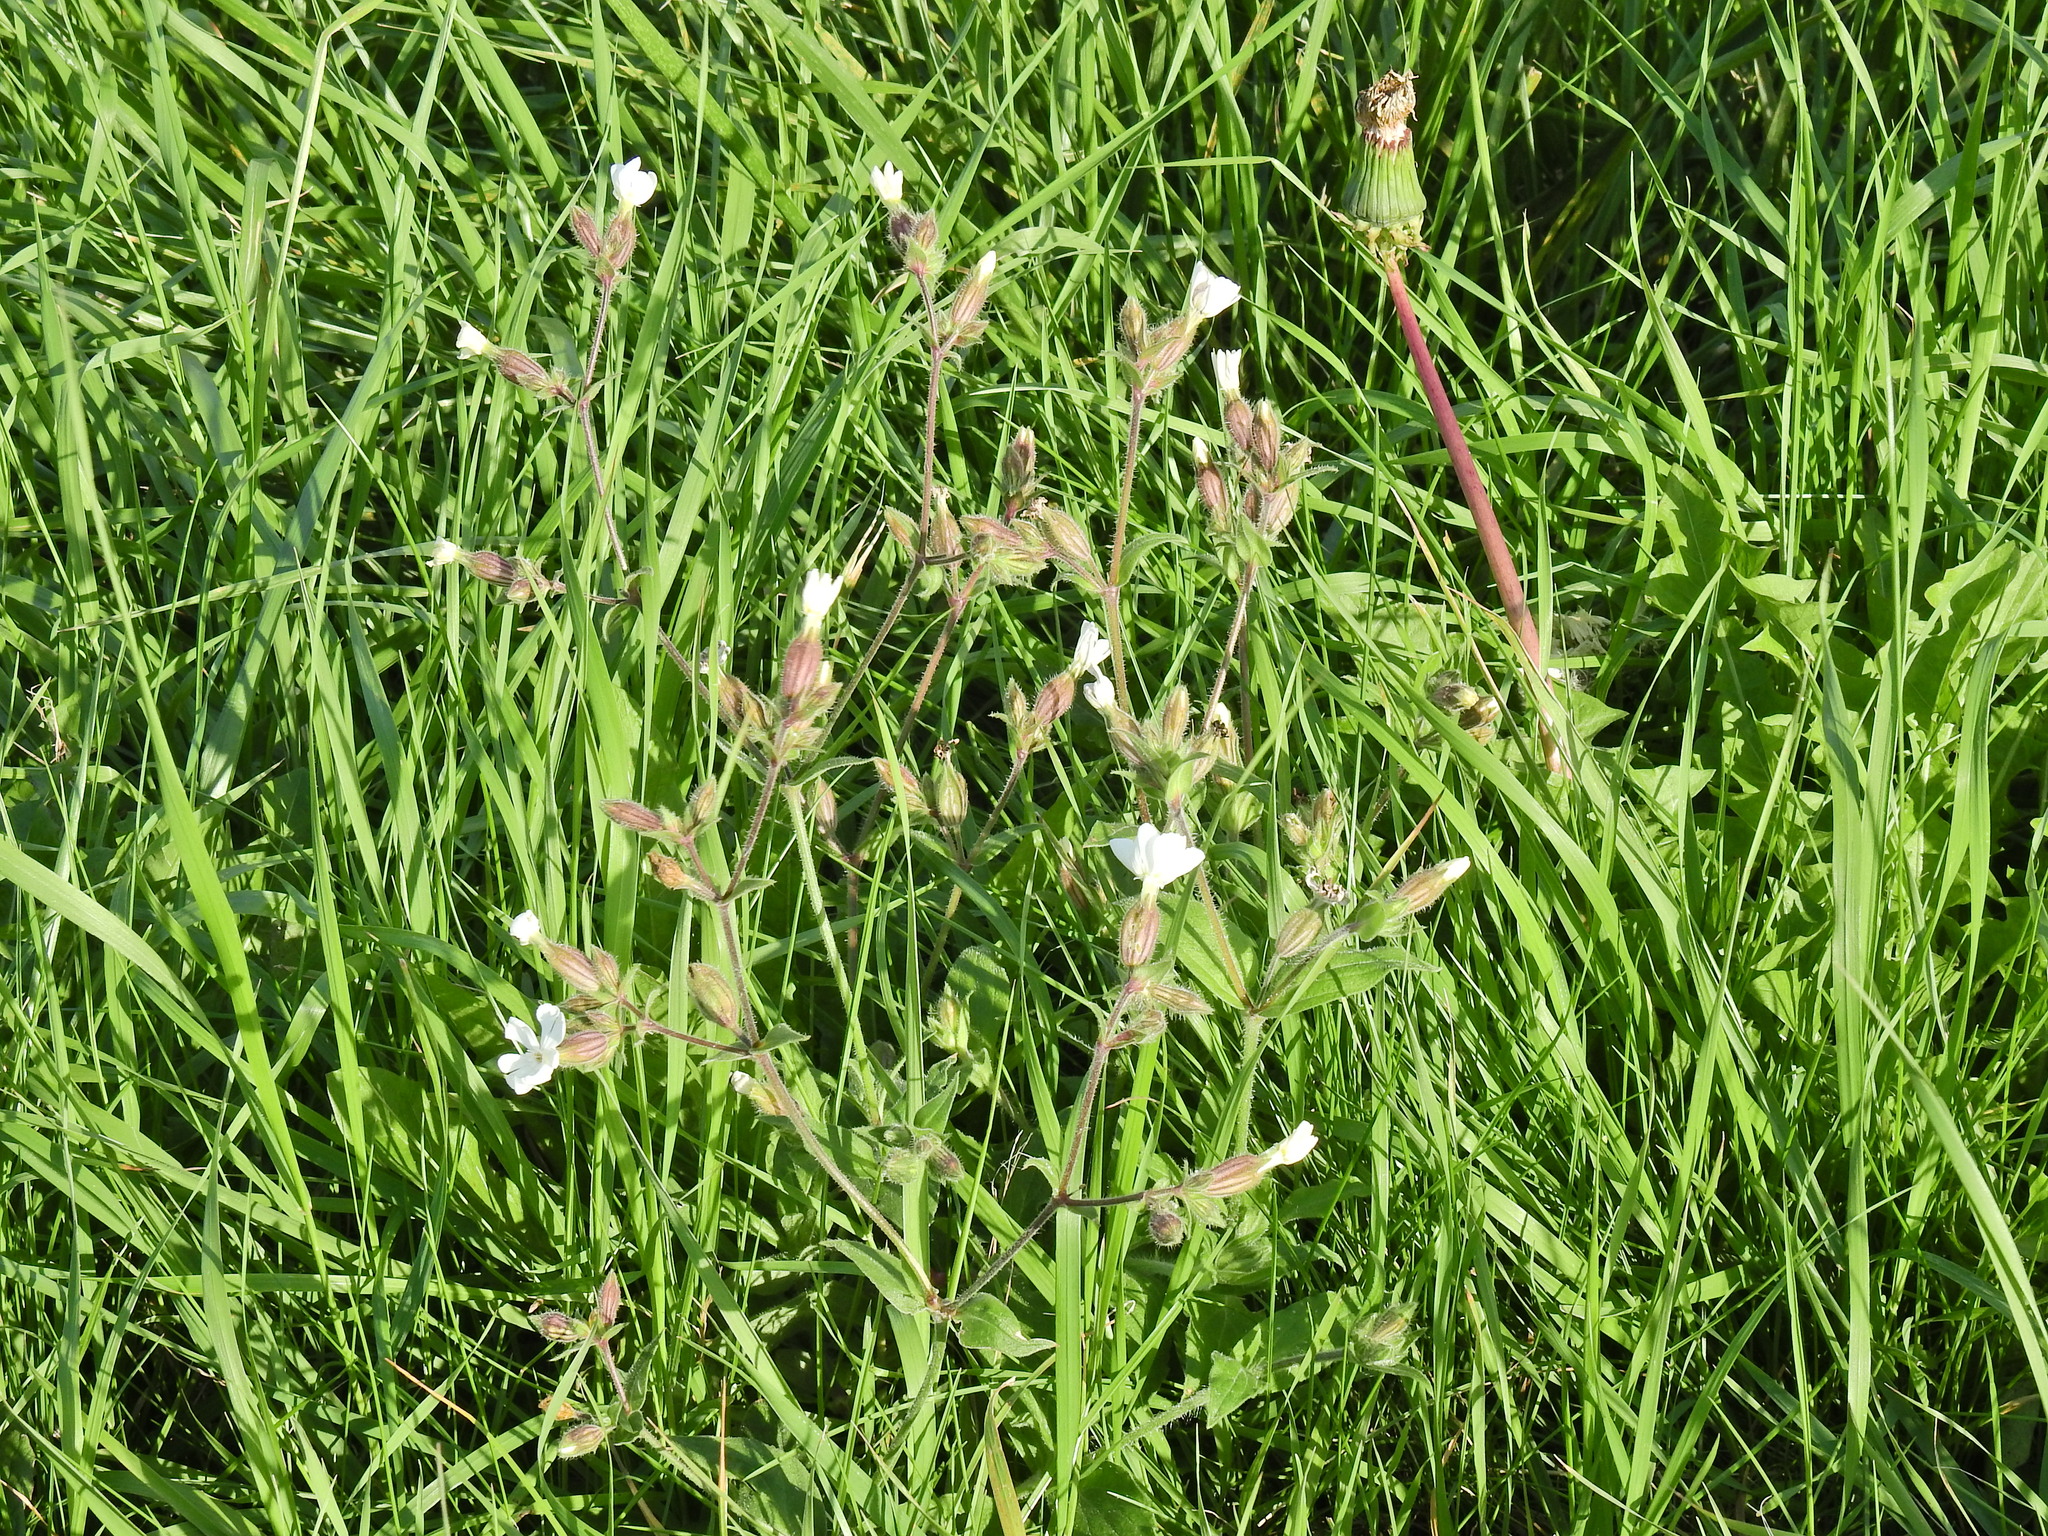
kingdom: Plantae
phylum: Tracheophyta
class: Magnoliopsida
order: Caryophyllales
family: Caryophyllaceae
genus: Silene
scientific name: Silene latifolia
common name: White campion
